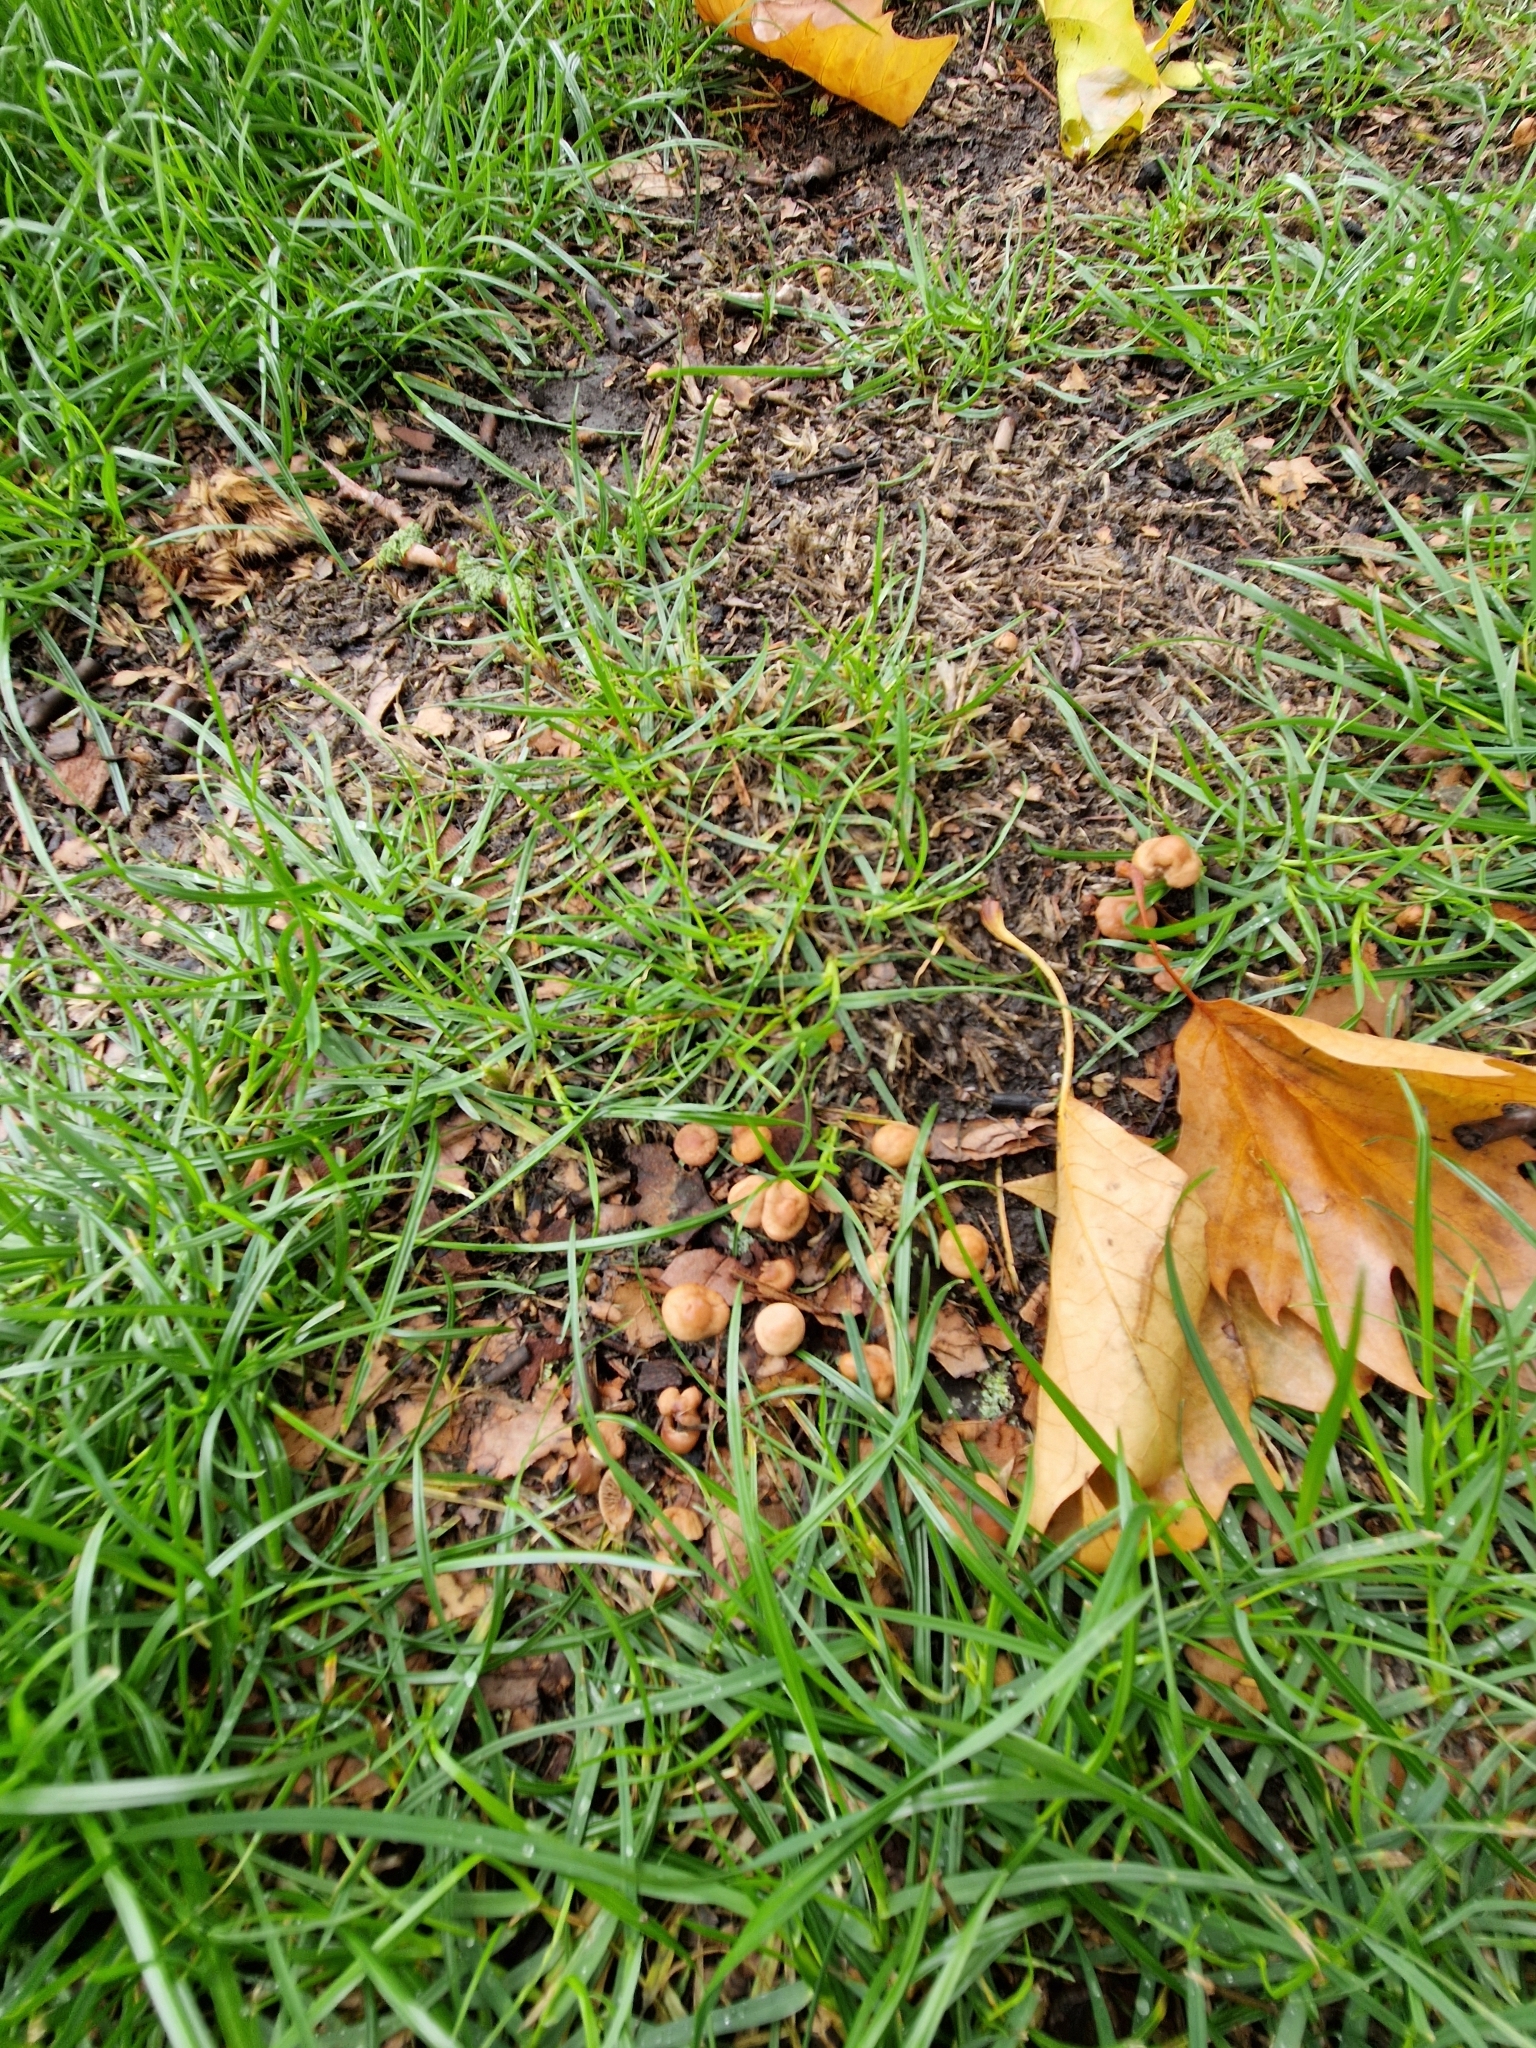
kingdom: Fungi
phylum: Basidiomycota
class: Agaricomycetes
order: Agaricales
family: Marasmiaceae
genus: Marasmius
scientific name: Marasmius oreades
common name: Fairy ring champignon
